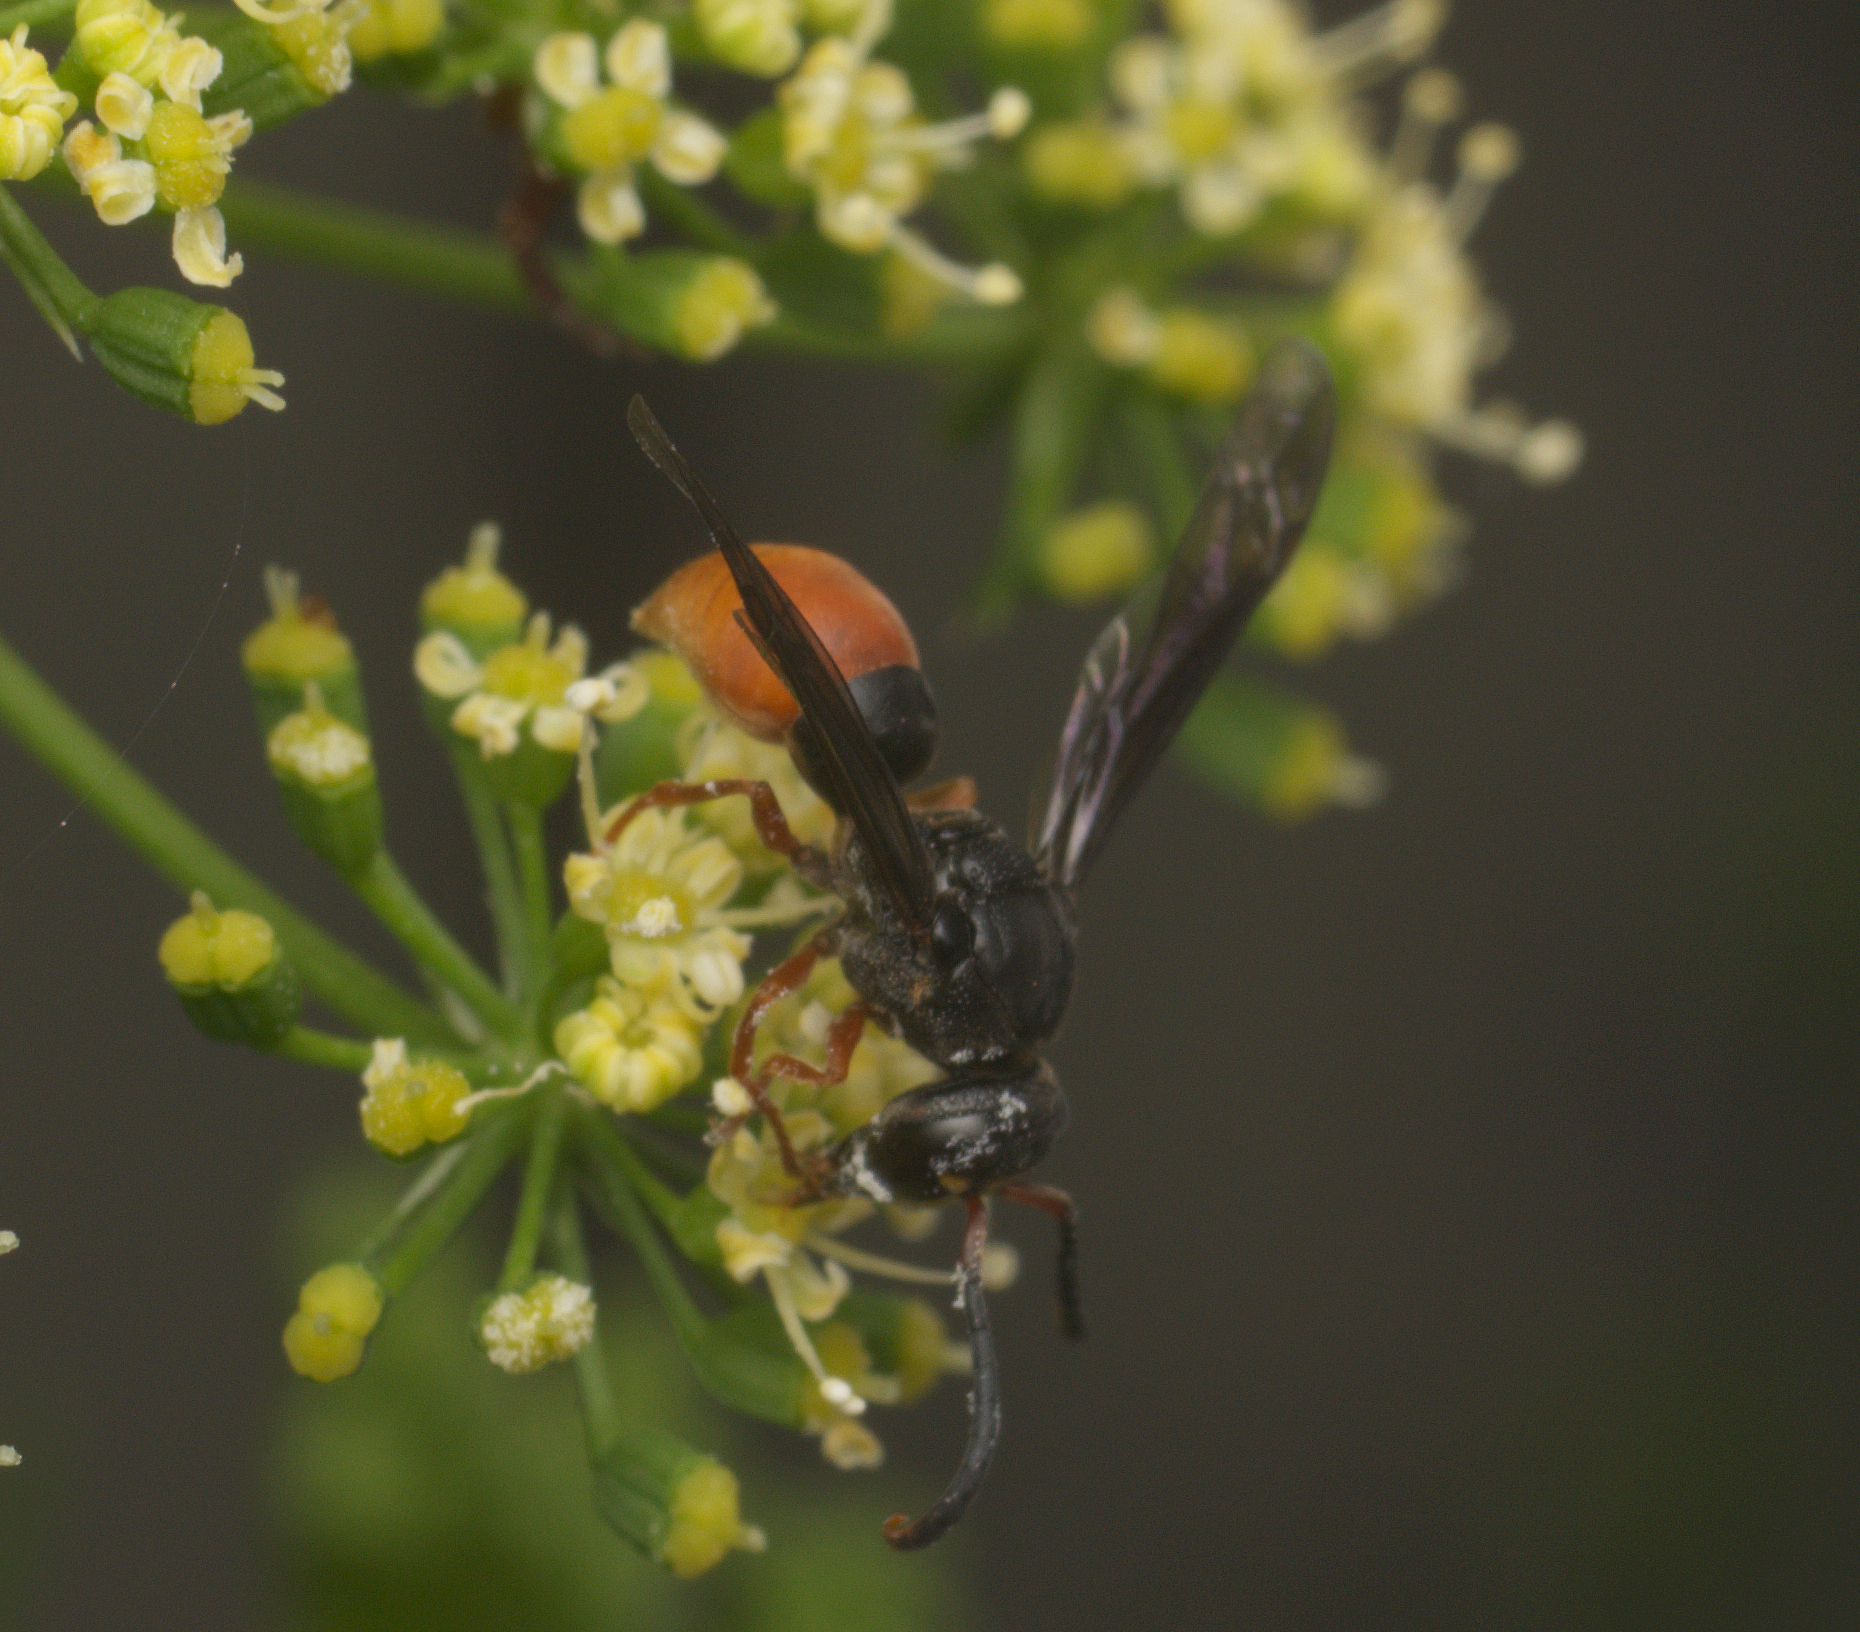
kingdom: Animalia
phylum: Arthropoda
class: Insecta
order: Hymenoptera
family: Eumenidae
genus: Pseudabispa
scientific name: Pseudabispa bicolor
